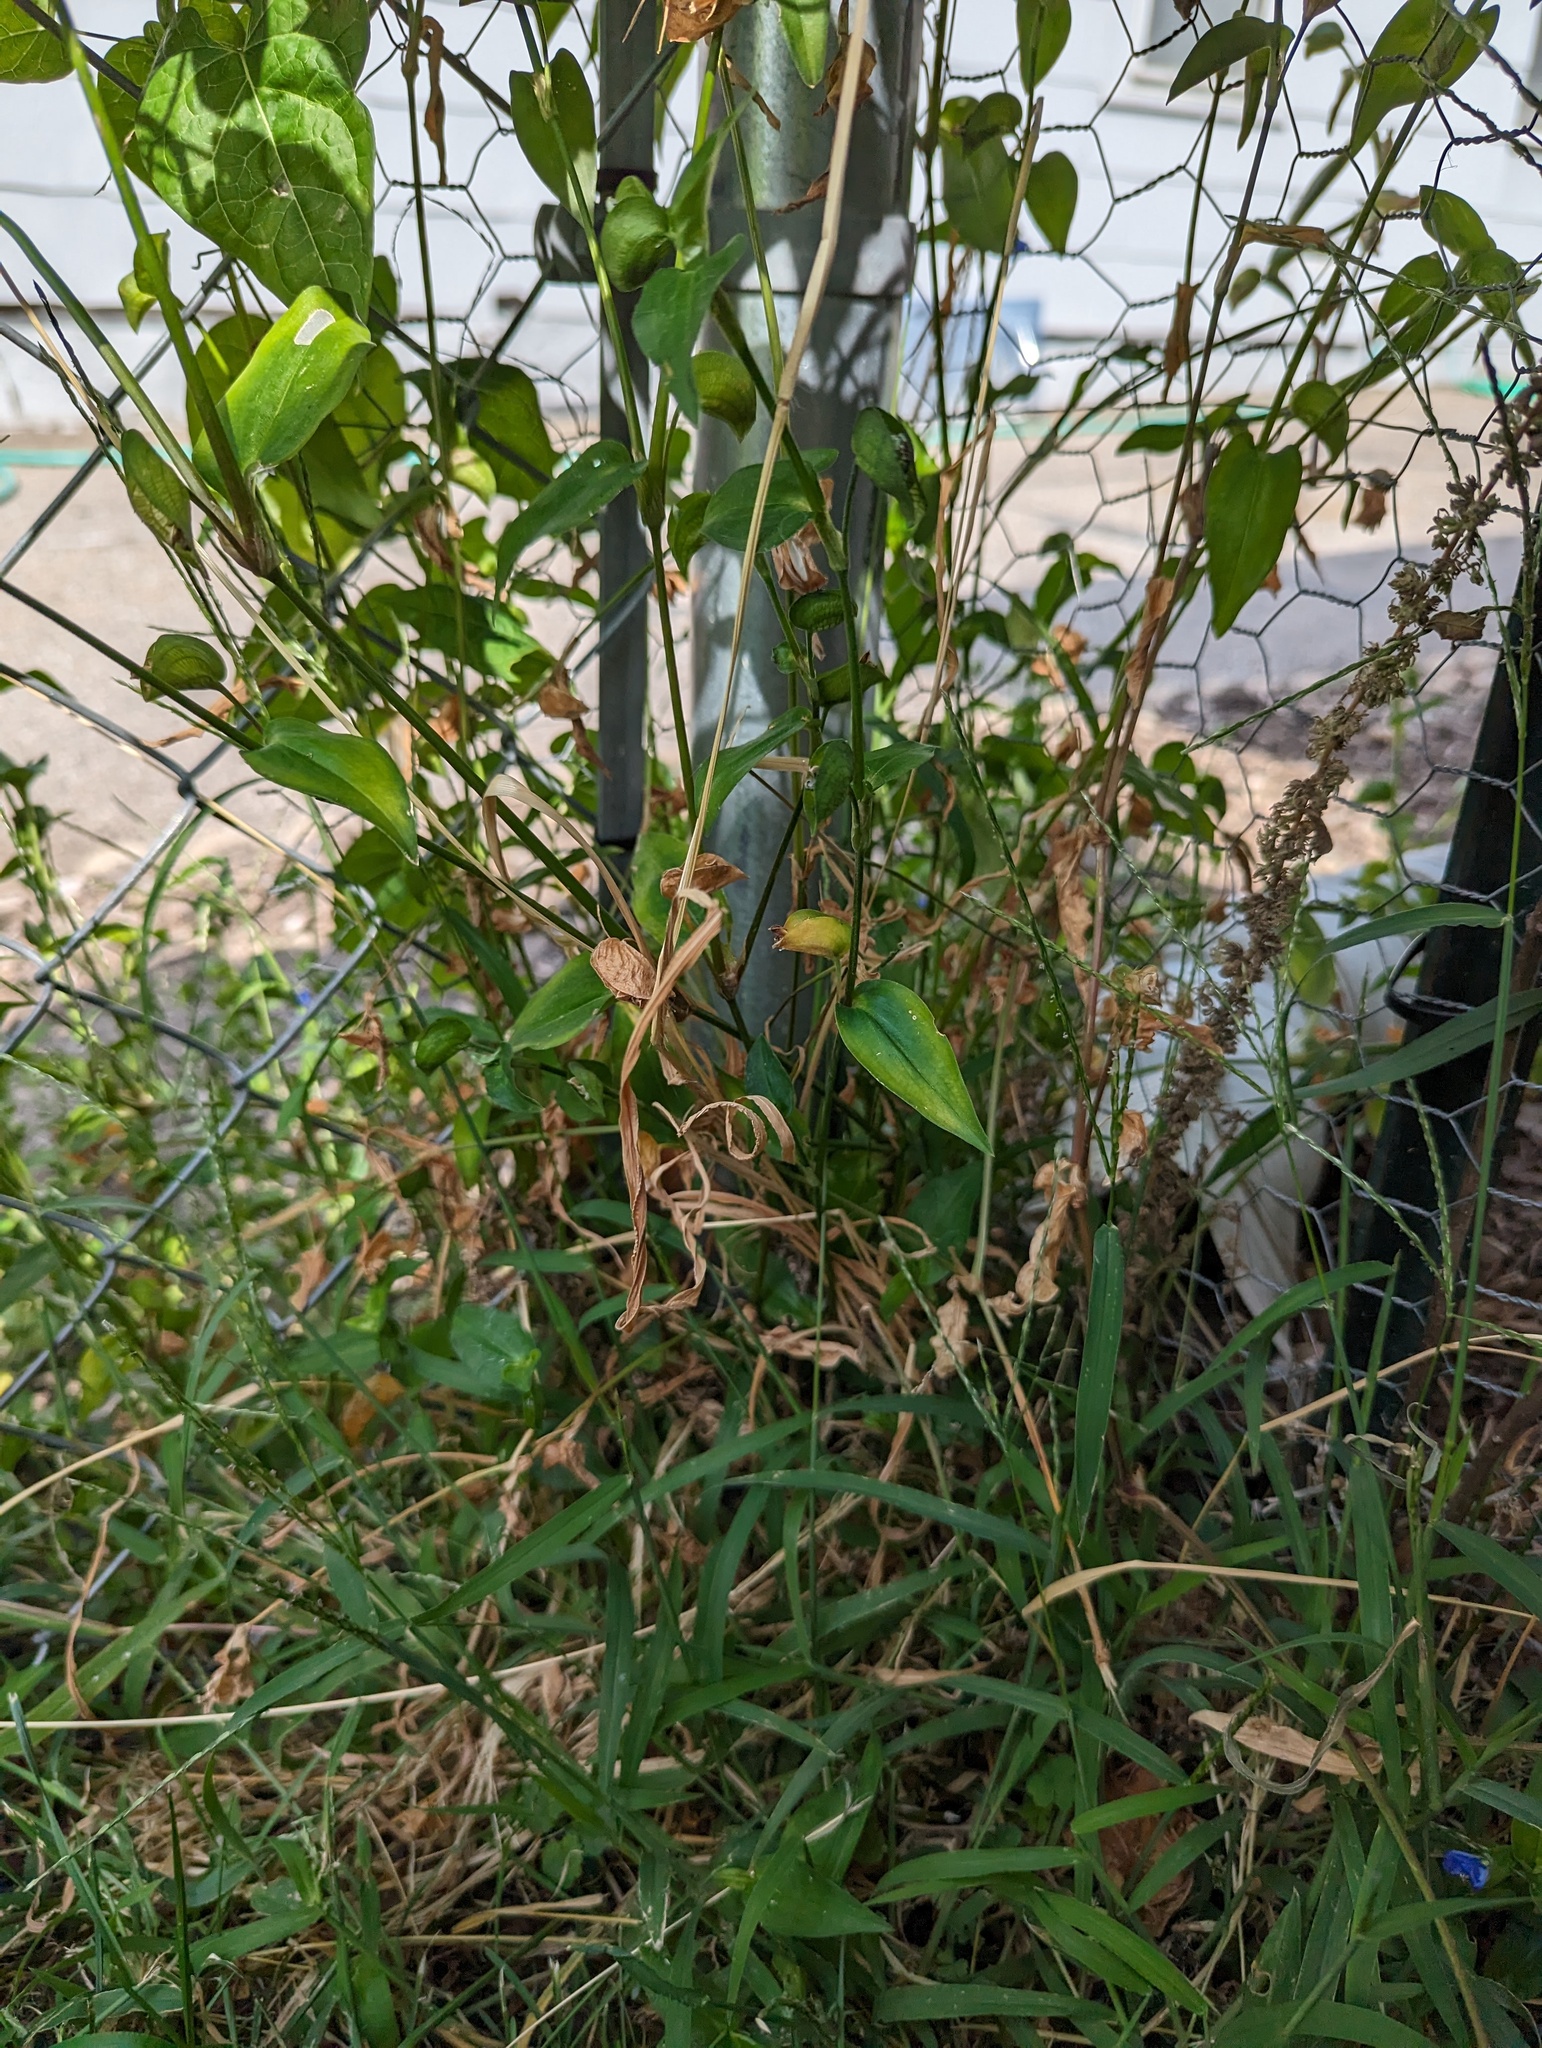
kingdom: Plantae
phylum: Tracheophyta
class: Liliopsida
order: Commelinales
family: Commelinaceae
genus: Commelina
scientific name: Commelina communis
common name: Asiatic dayflower
